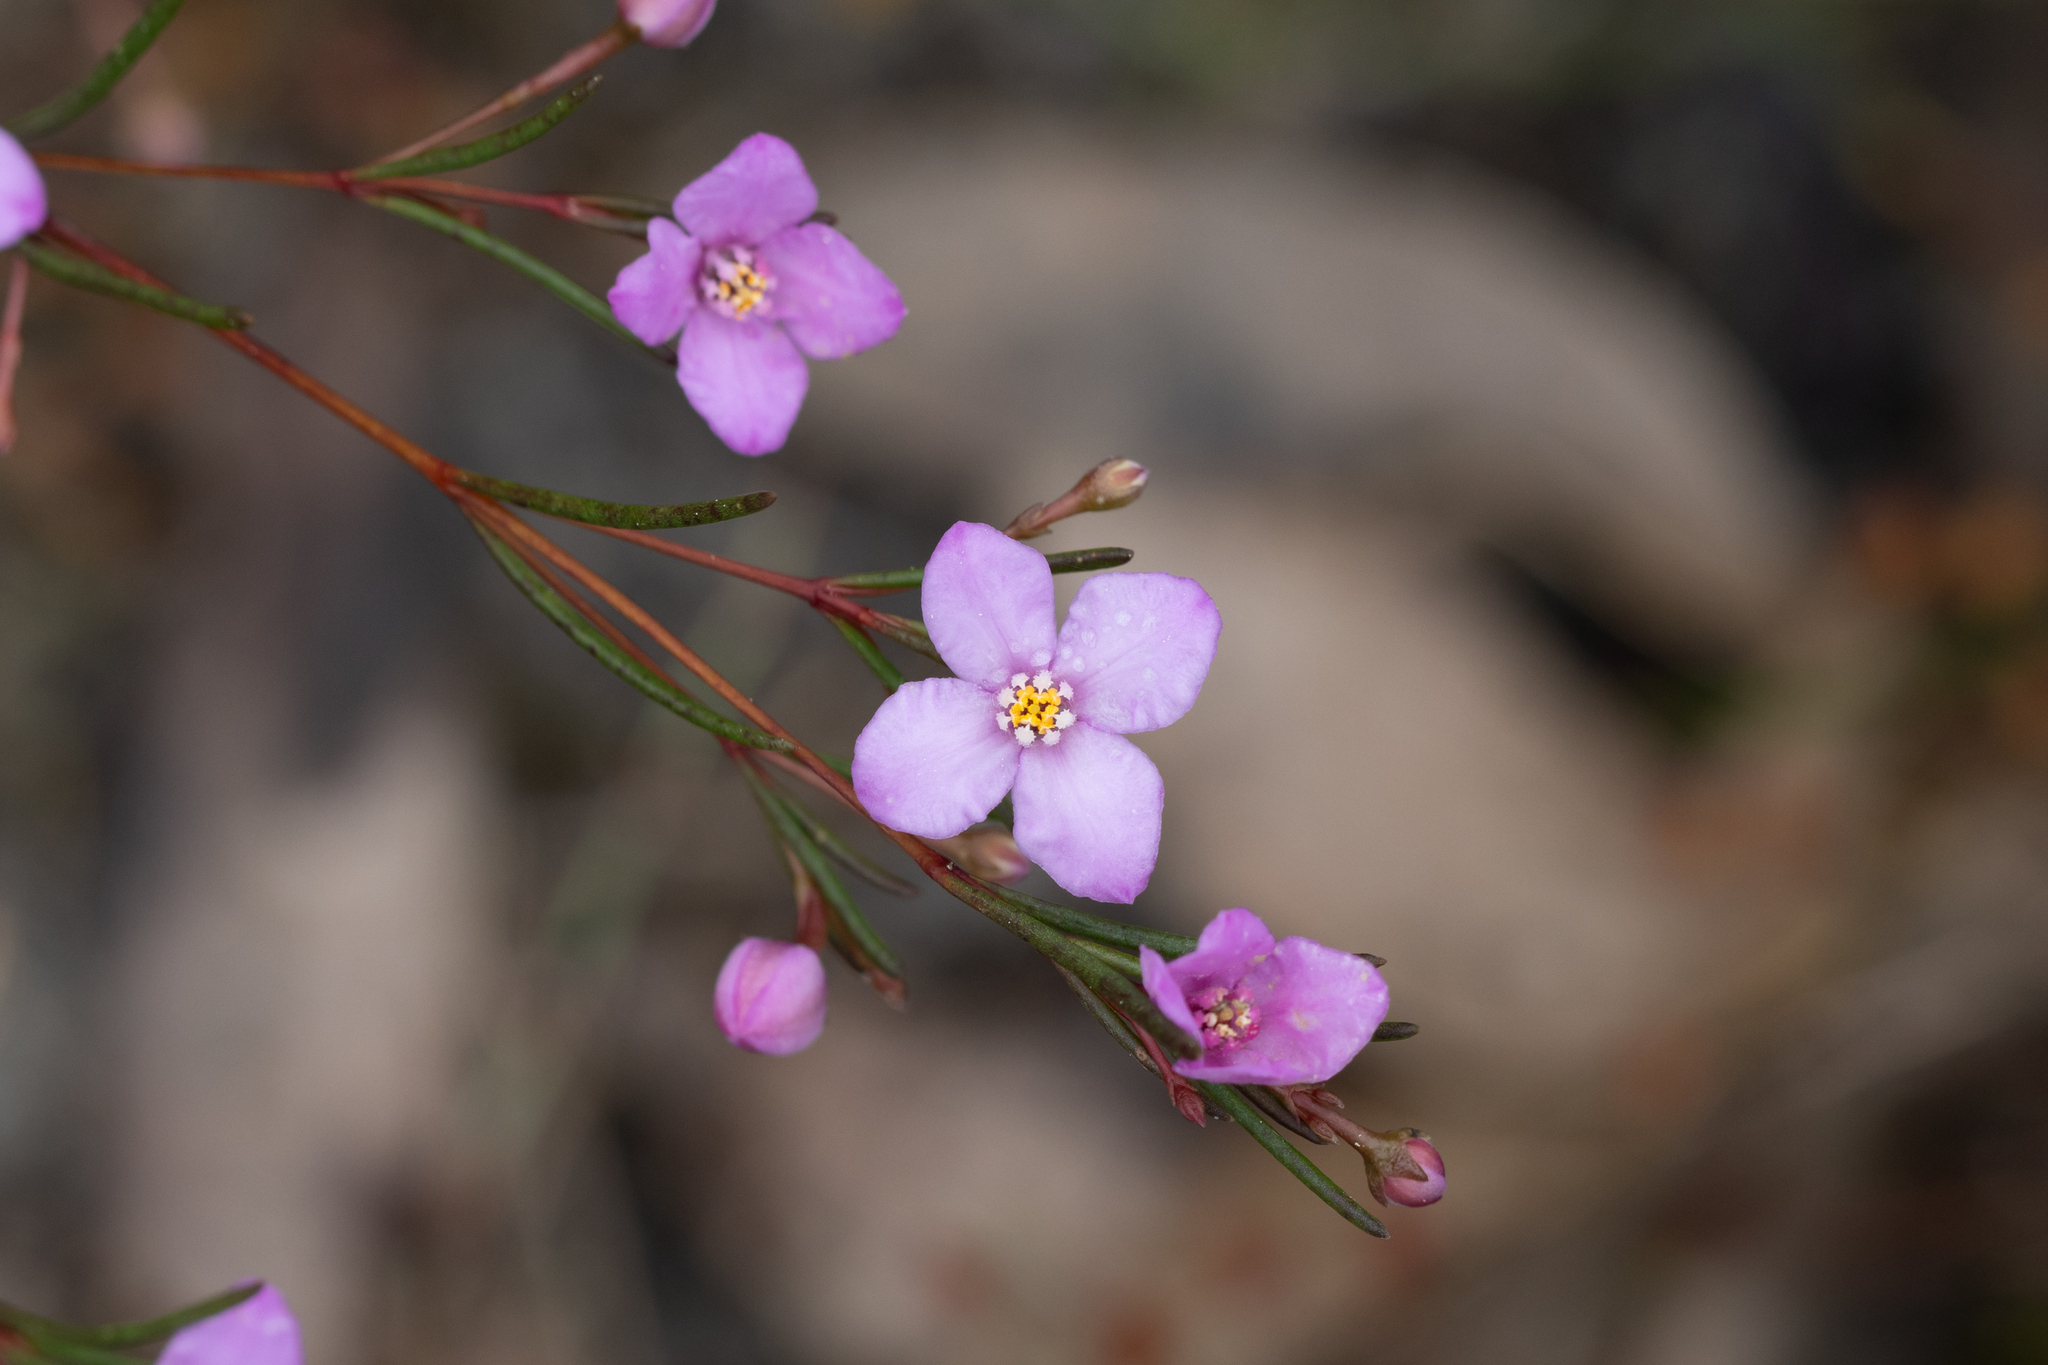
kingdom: Plantae
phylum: Tracheophyta
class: Magnoliopsida
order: Sapindales
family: Rutaceae
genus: Boronia
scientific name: Boronia filifolia
